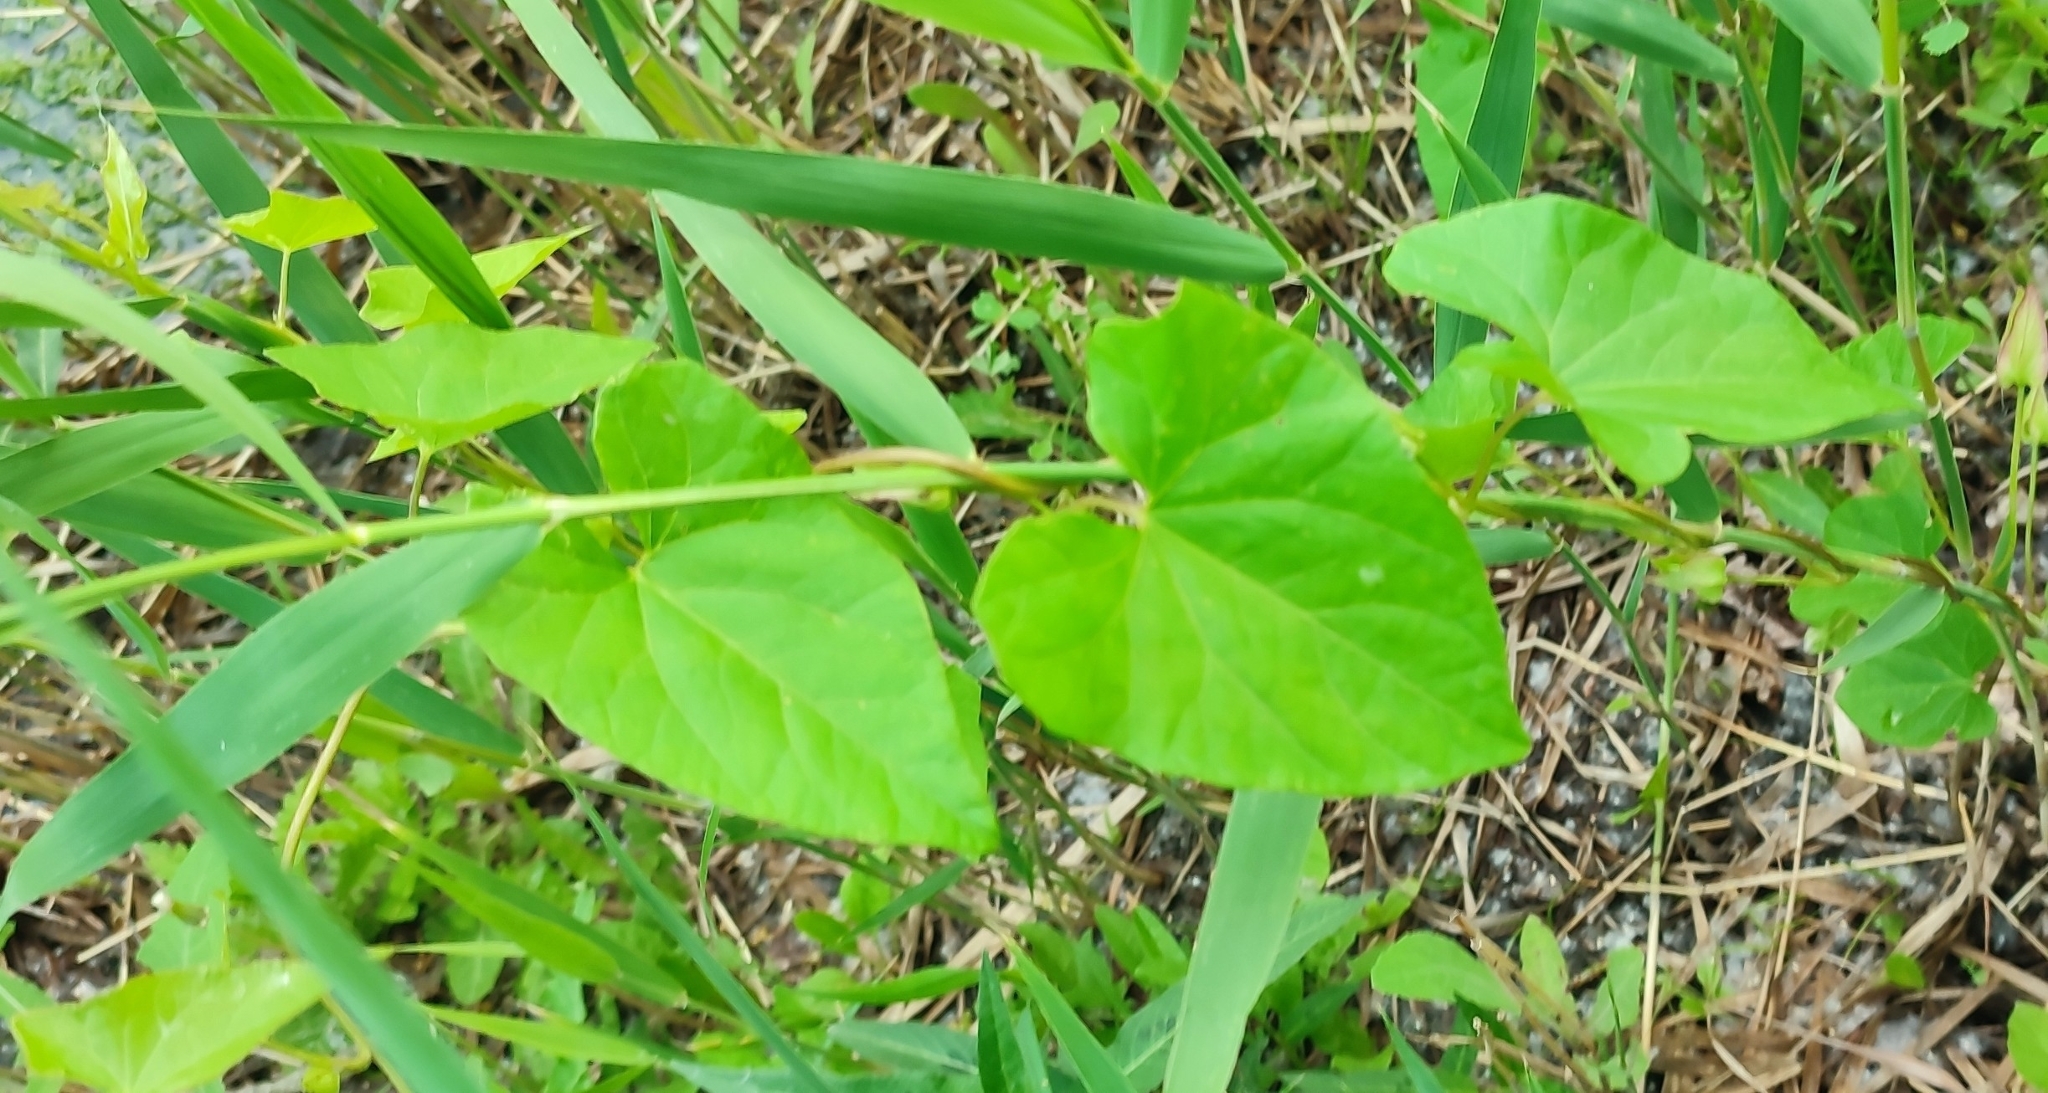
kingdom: Plantae
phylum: Tracheophyta
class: Magnoliopsida
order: Solanales
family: Convolvulaceae
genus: Calystegia
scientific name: Calystegia sepium
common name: Hedge bindweed
